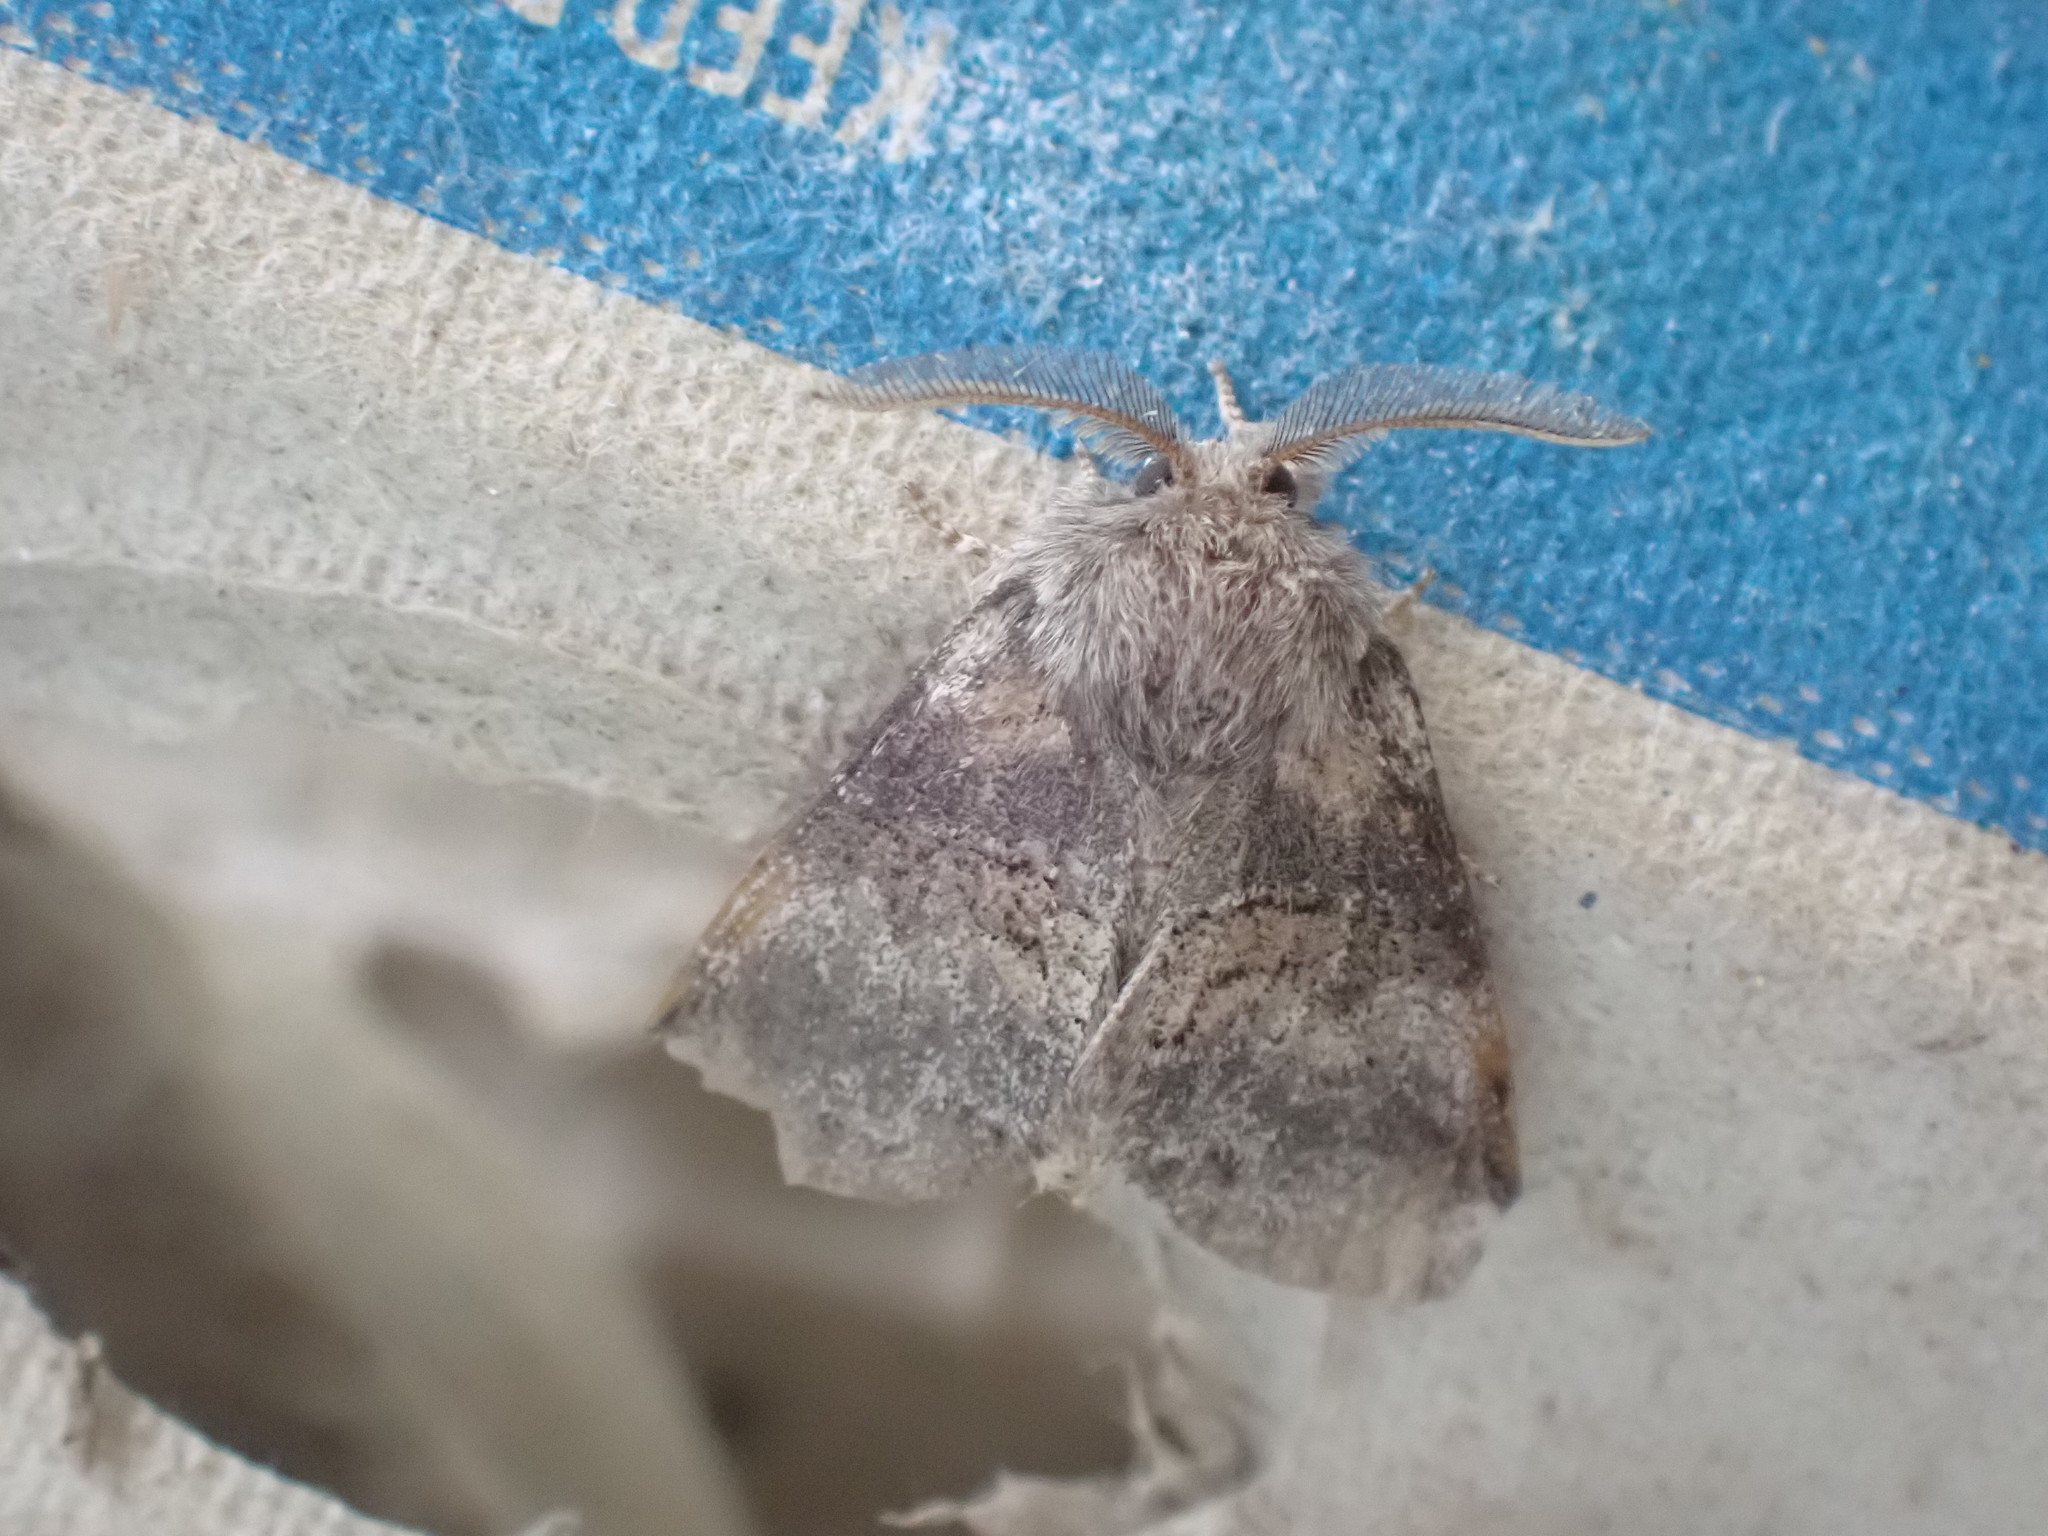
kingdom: Animalia
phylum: Arthropoda
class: Insecta
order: Lepidoptera
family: Notodontidae
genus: Gluphisia
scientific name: Gluphisia septentrionis
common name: Common gluphisia
